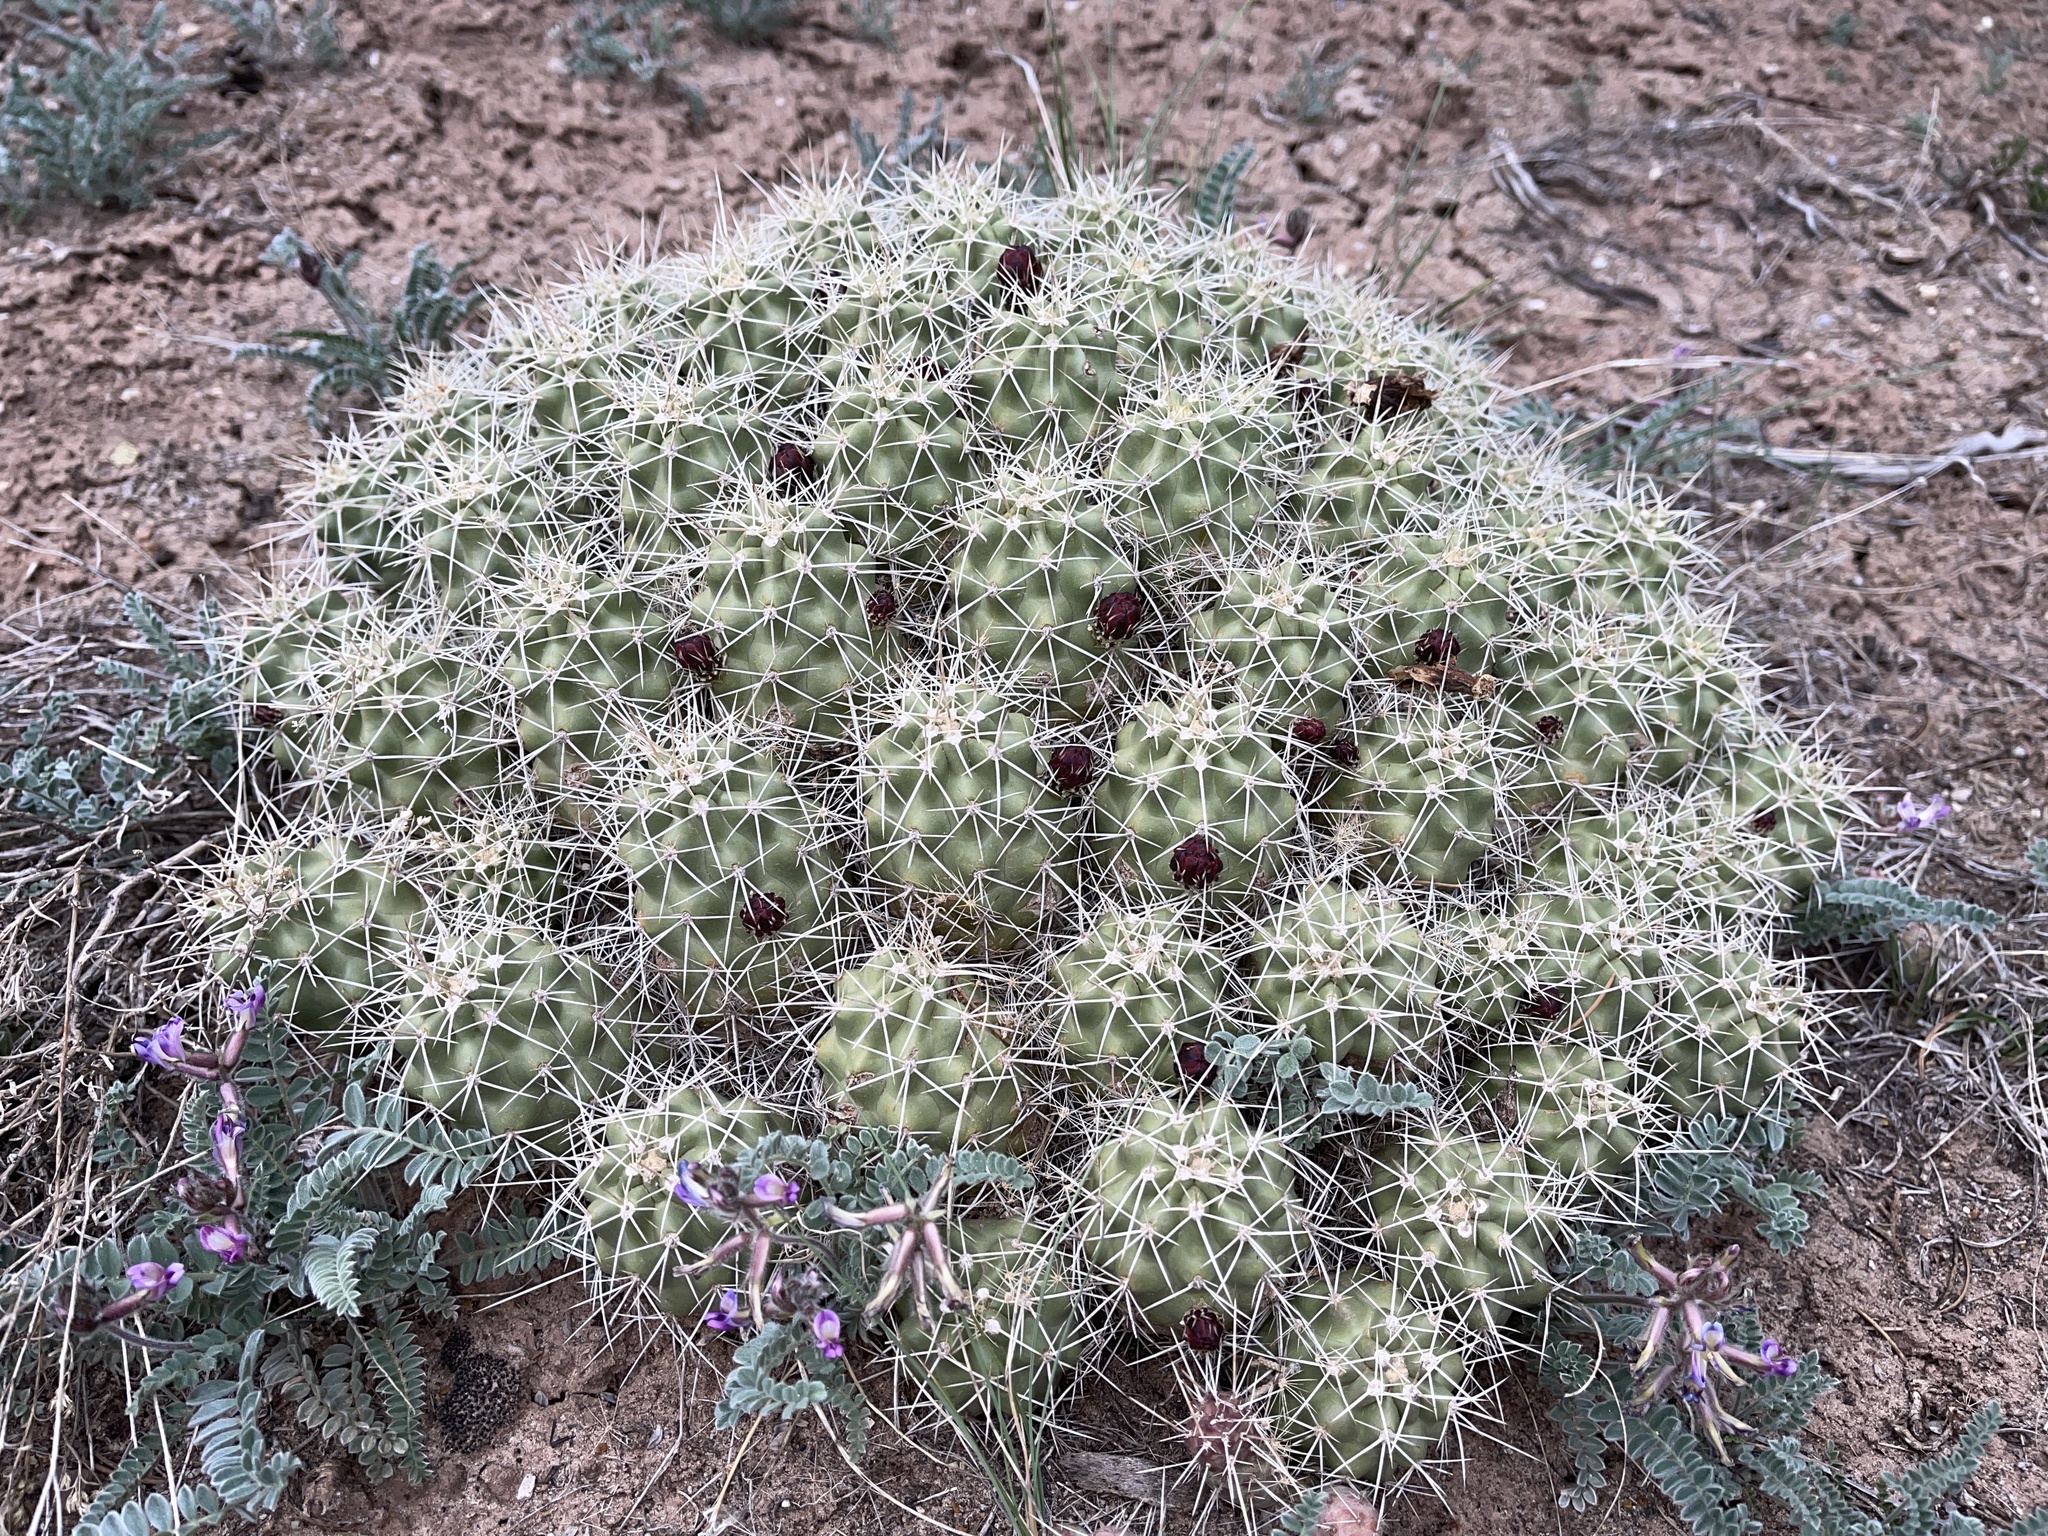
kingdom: Plantae
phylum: Tracheophyta
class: Magnoliopsida
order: Caryophyllales
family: Cactaceae
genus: Echinocereus
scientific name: Echinocereus triglochidiatus
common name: Claretcup hedgehog
